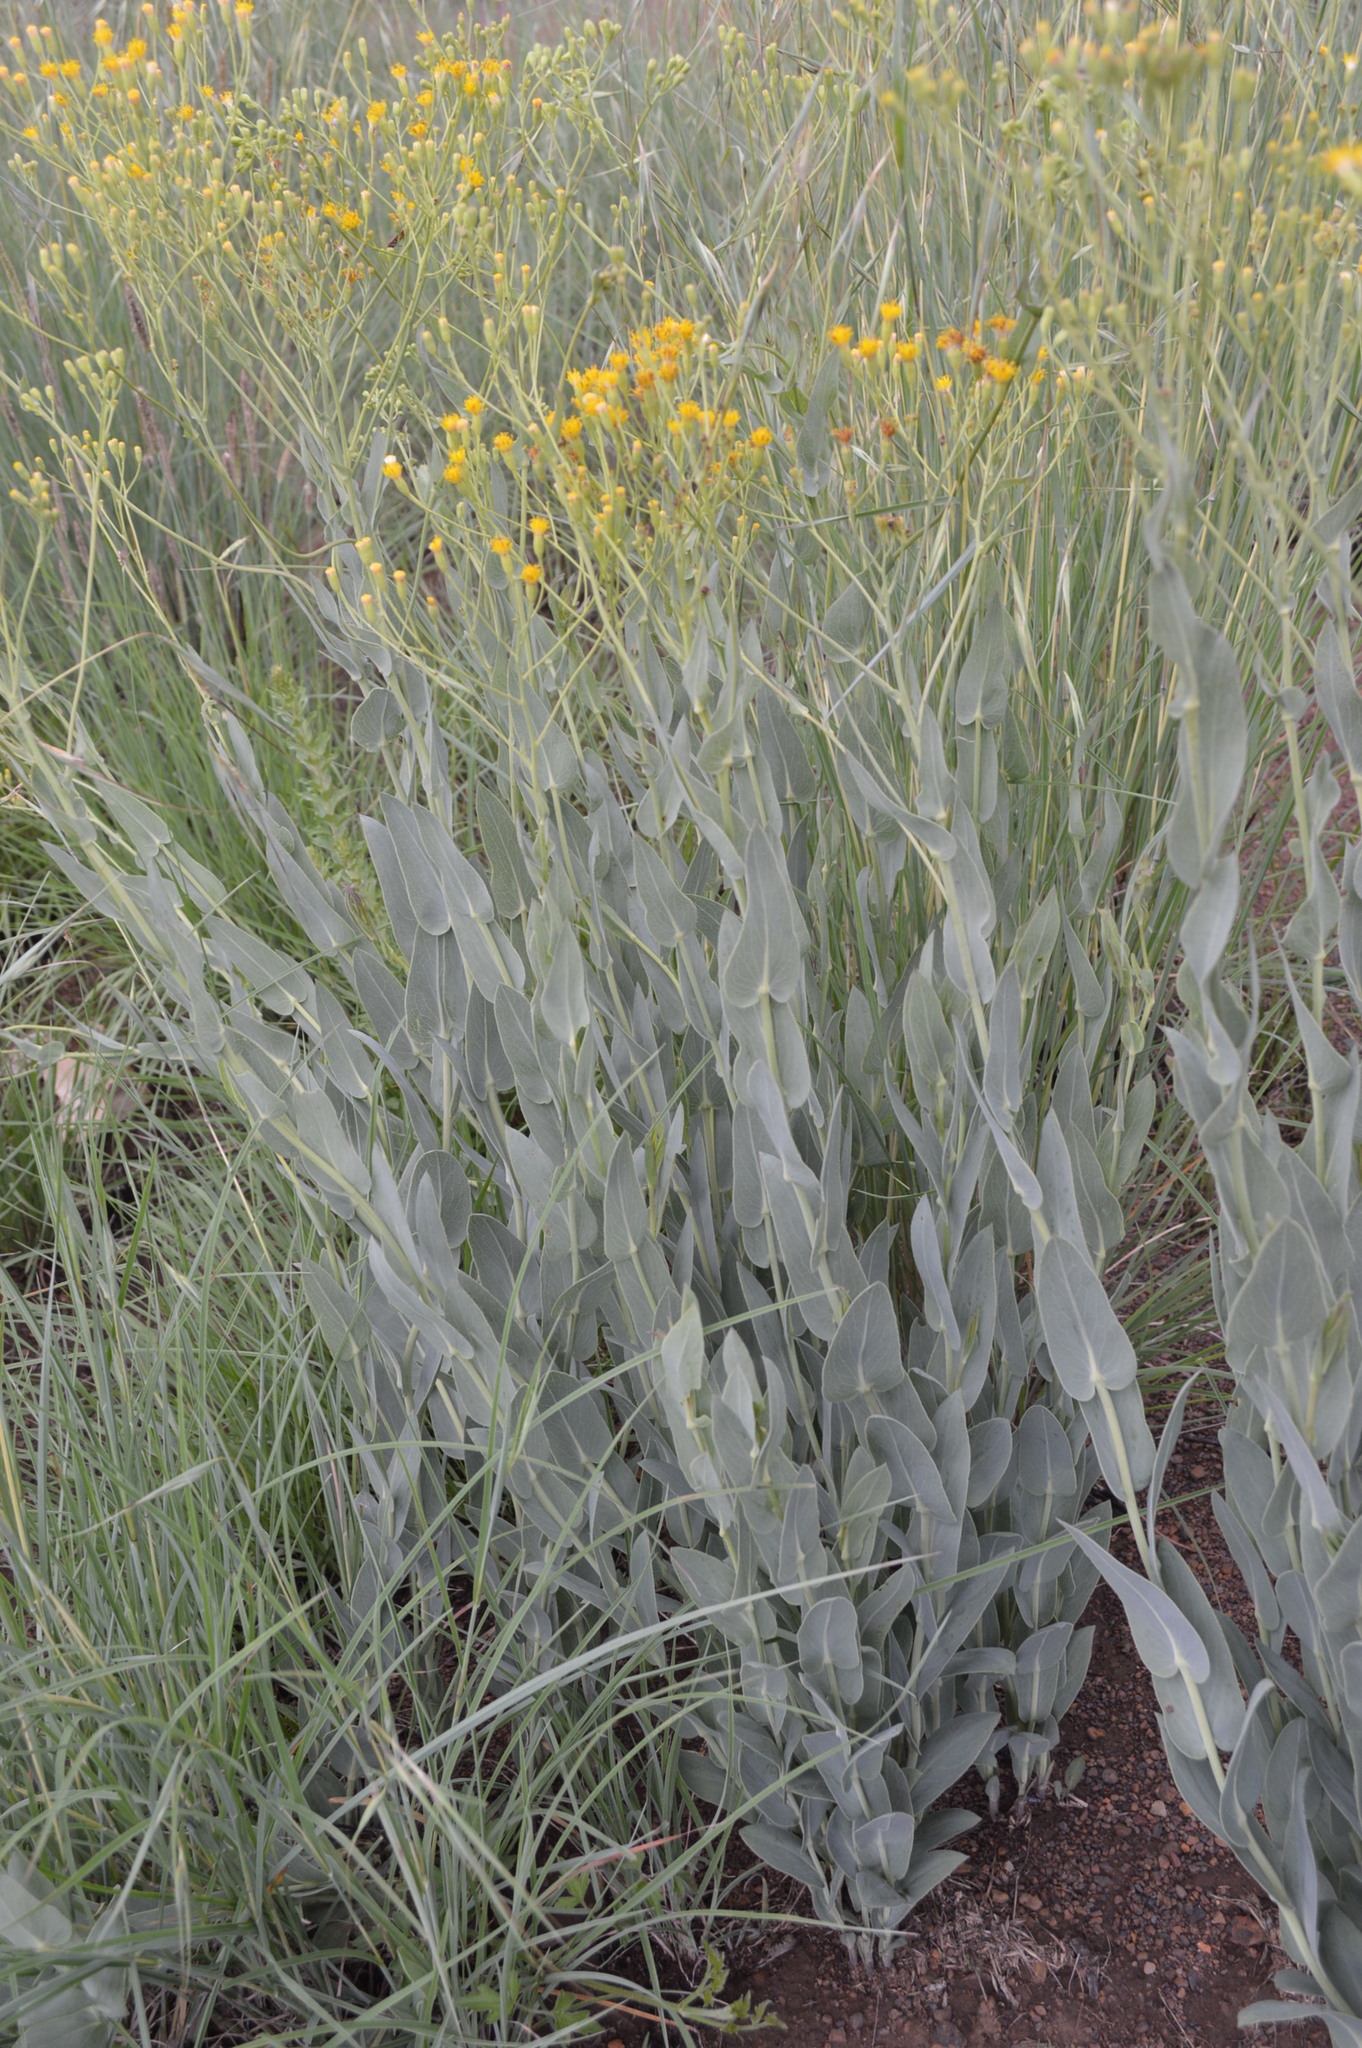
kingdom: Plantae
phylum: Tracheophyta
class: Magnoliopsida
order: Asterales
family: Asteraceae
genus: Senecio
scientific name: Senecio venosus
